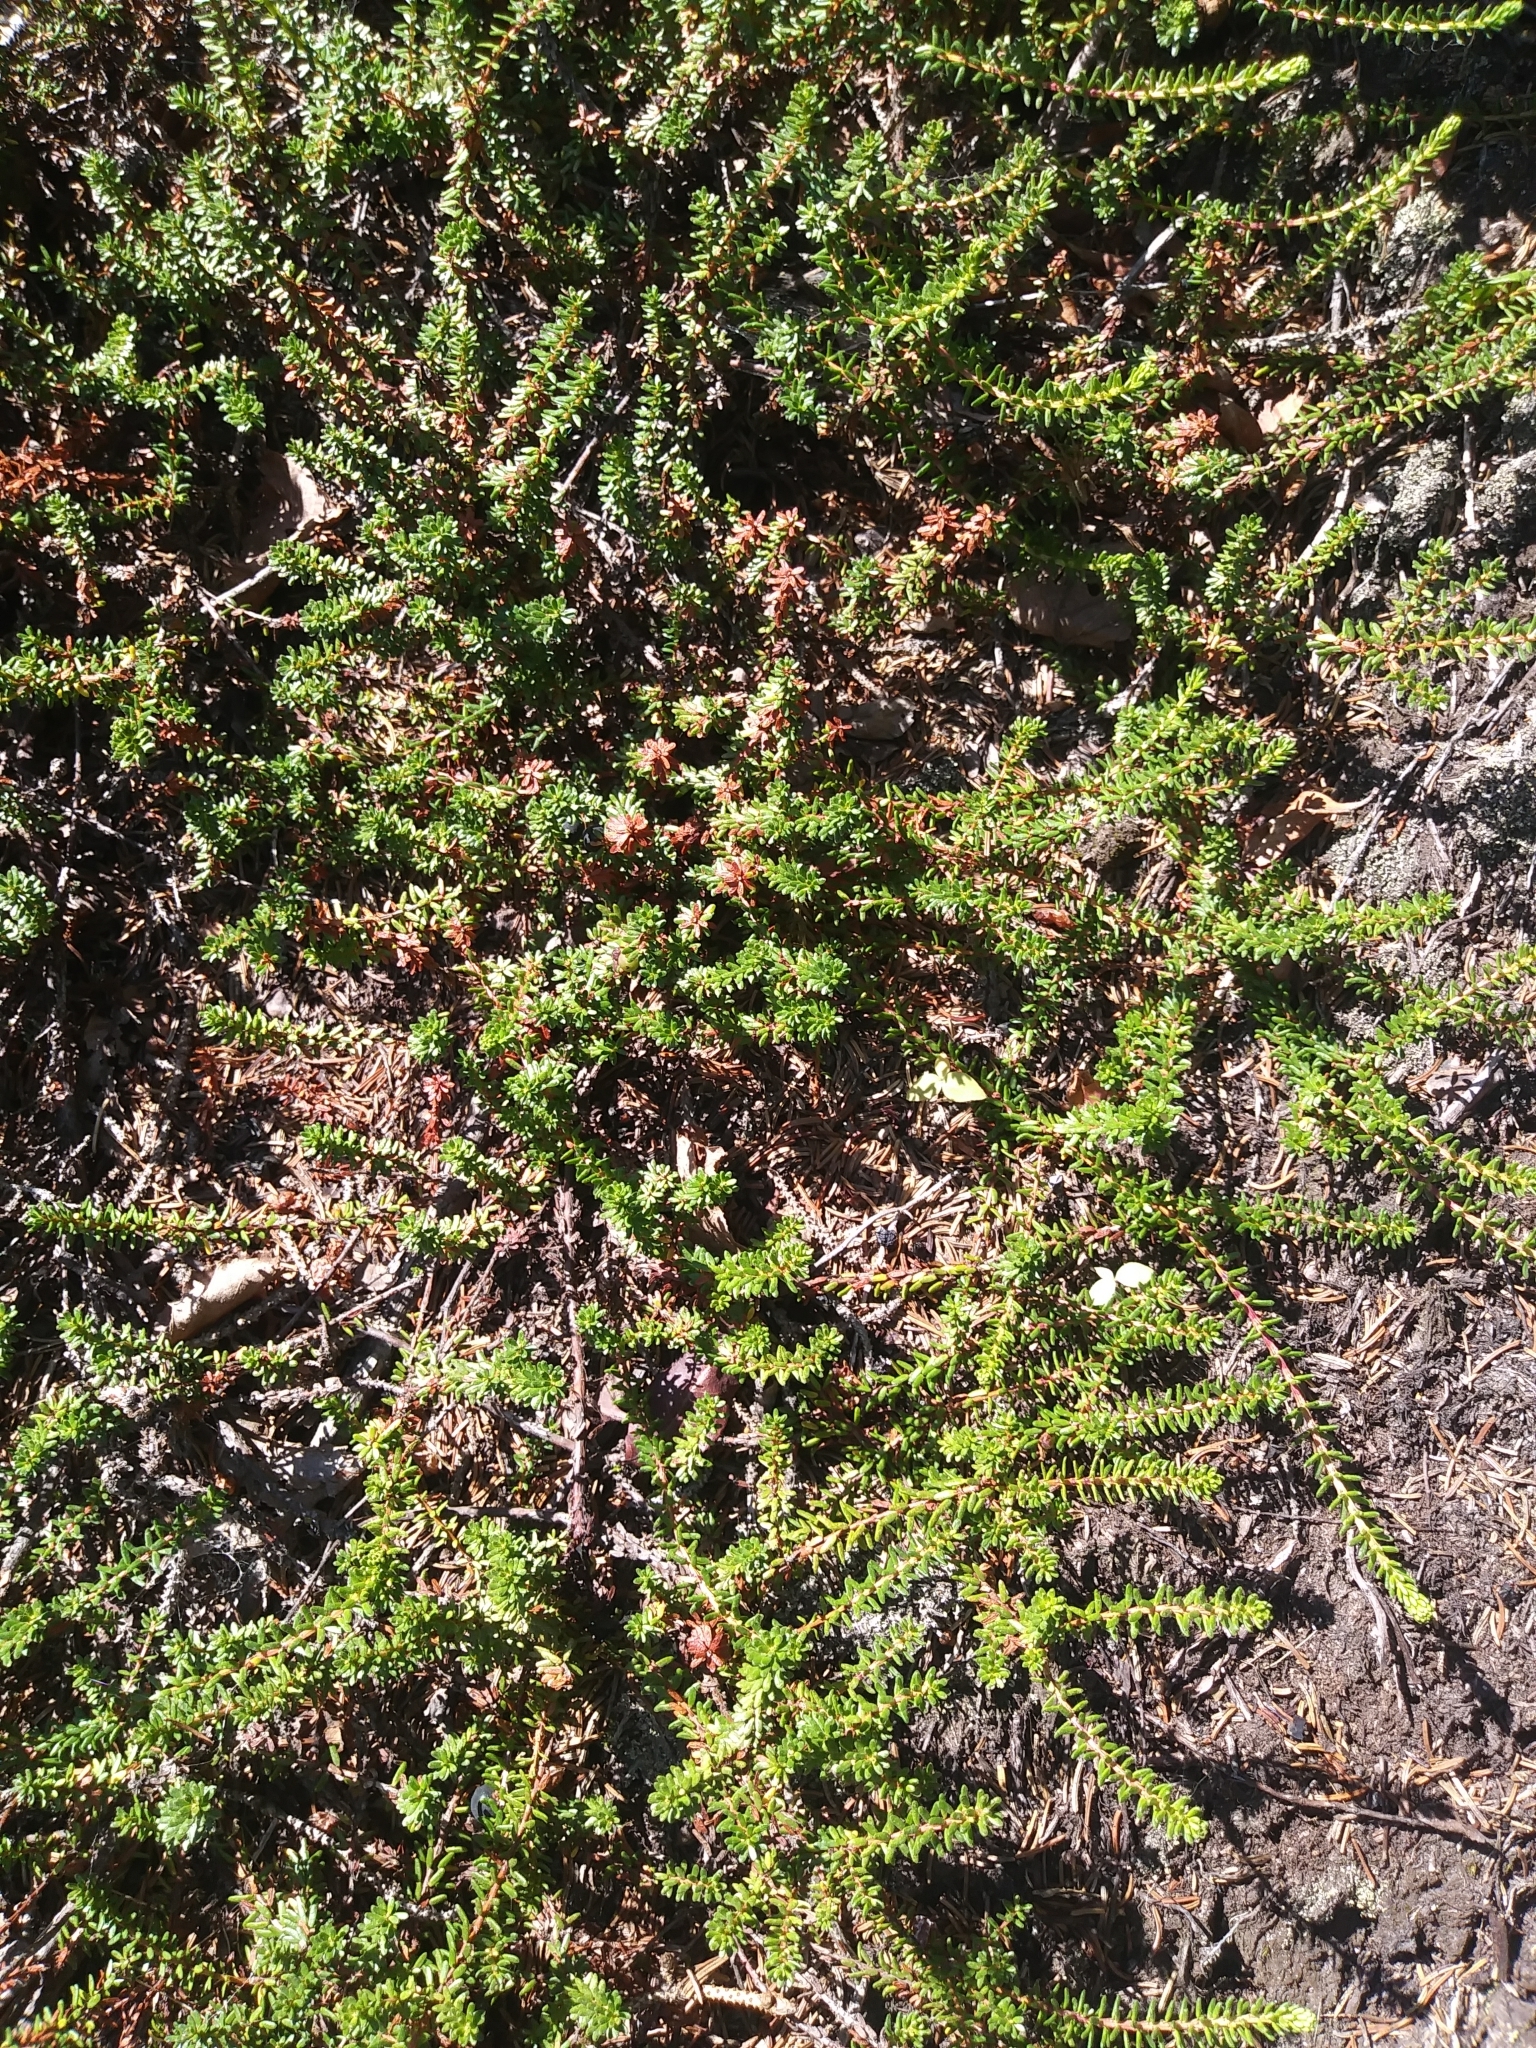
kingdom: Plantae
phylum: Tracheophyta
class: Magnoliopsida
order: Ericales
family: Ericaceae
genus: Empetrum
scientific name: Empetrum nigrum
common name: Black crowberry
